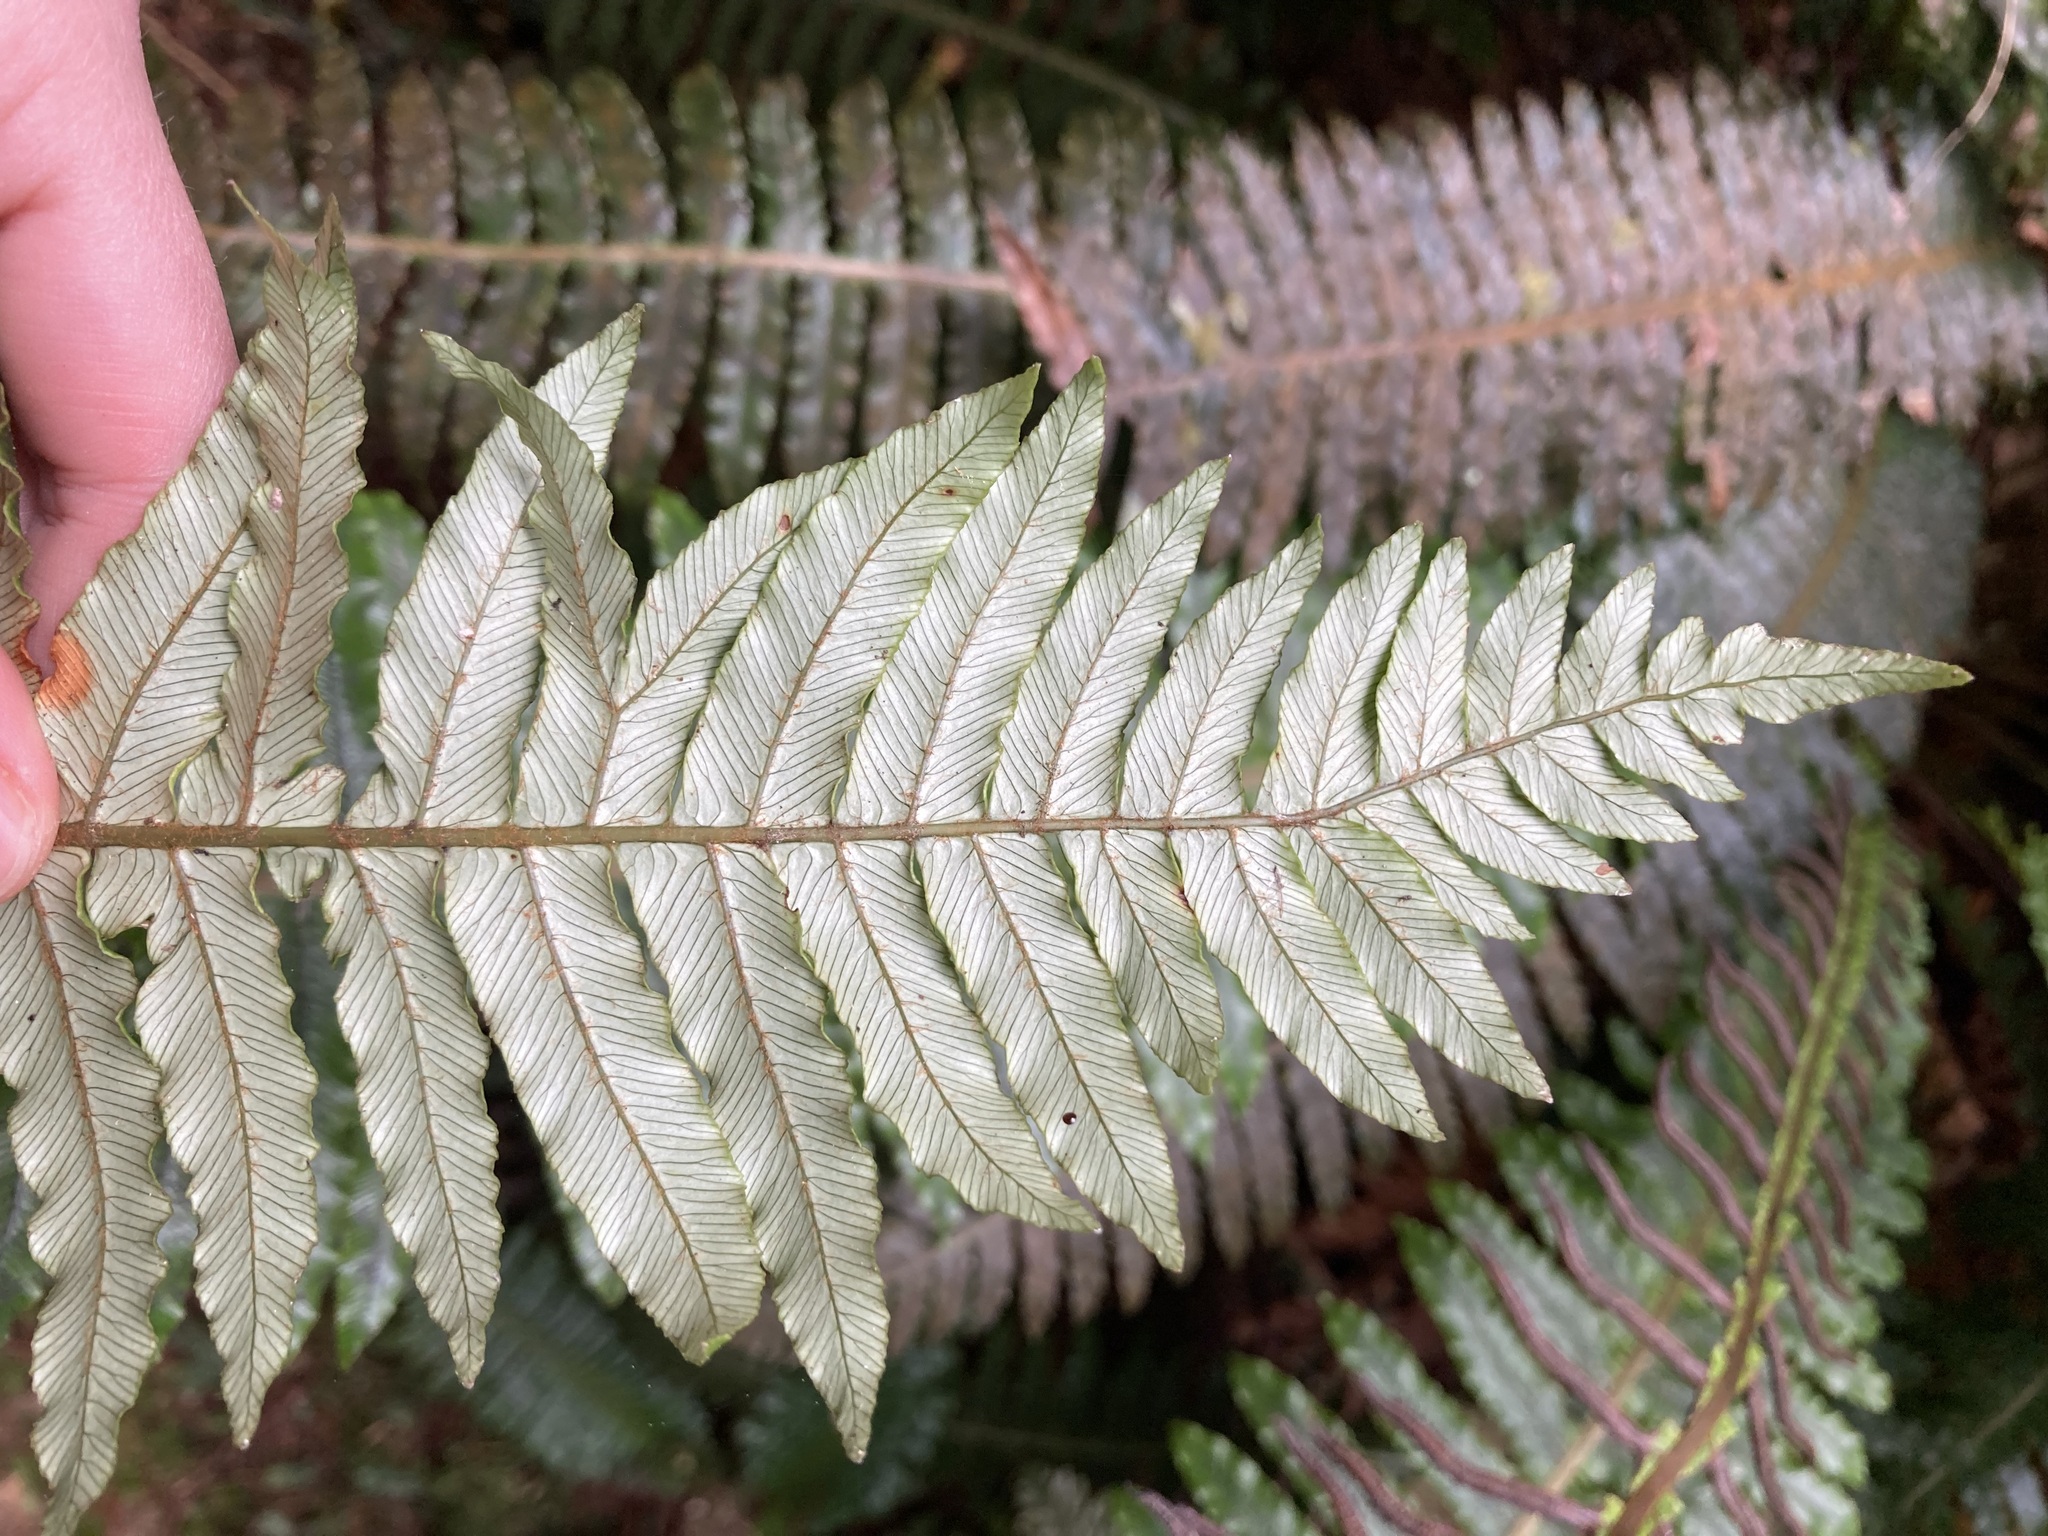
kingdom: Plantae
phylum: Tracheophyta
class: Polypodiopsida
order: Polypodiales
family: Blechnaceae
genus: Lomaria
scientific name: Lomaria discolor
